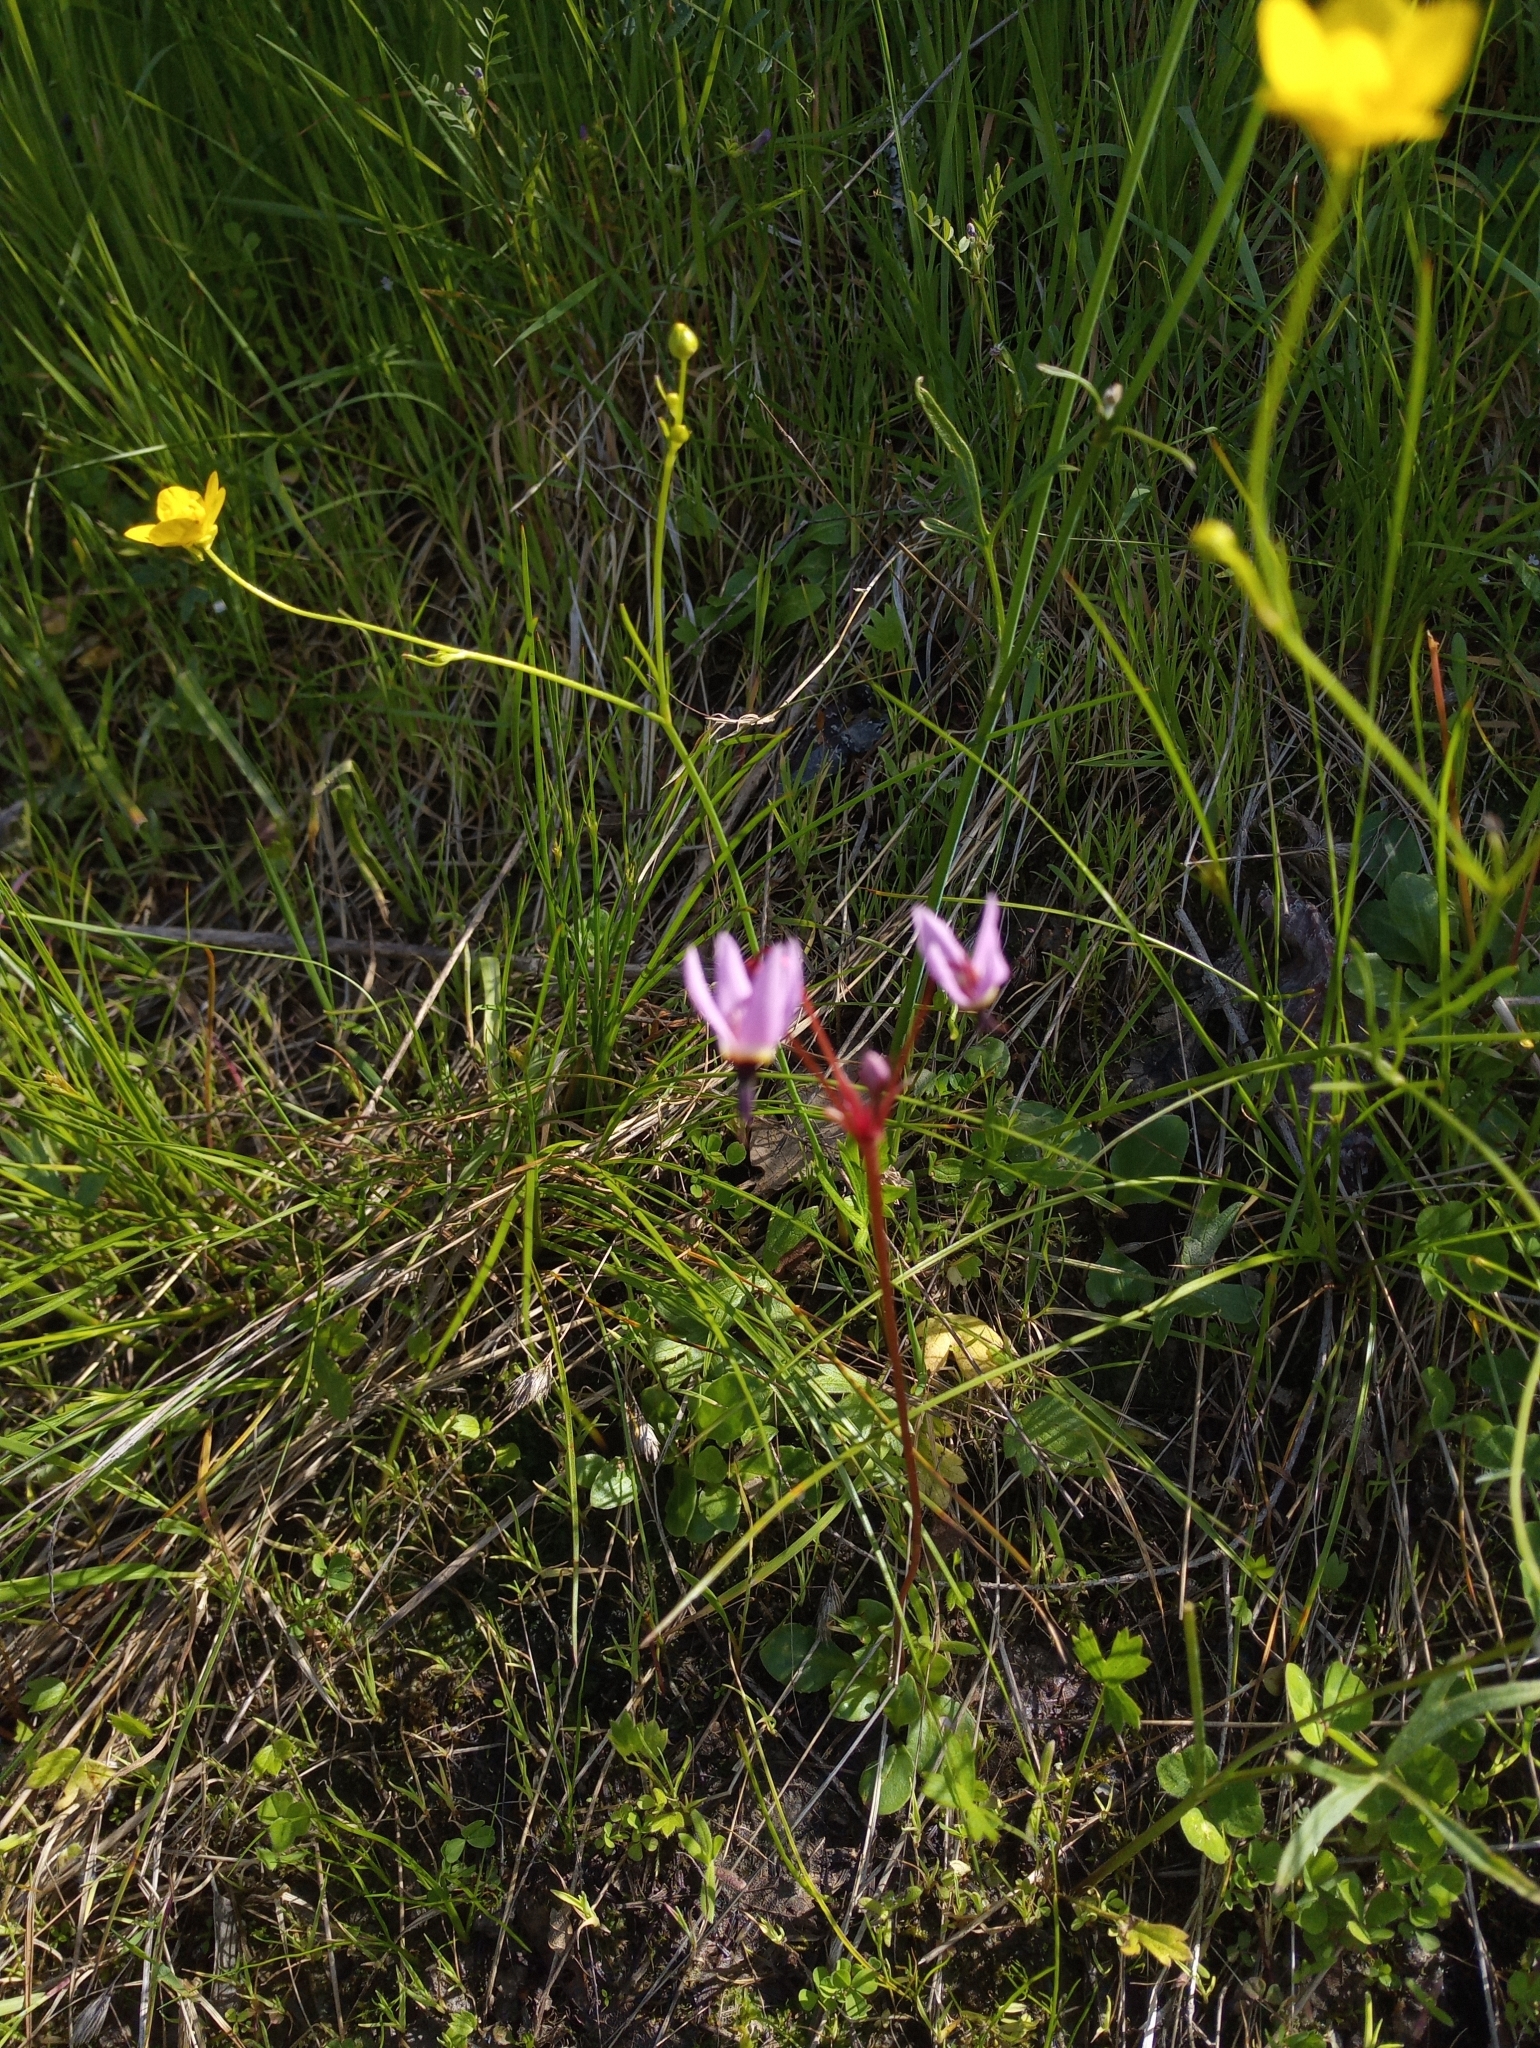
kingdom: Plantae
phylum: Tracheophyta
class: Magnoliopsida
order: Ericales
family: Primulaceae
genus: Dodecatheon
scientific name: Dodecatheon hendersonii
